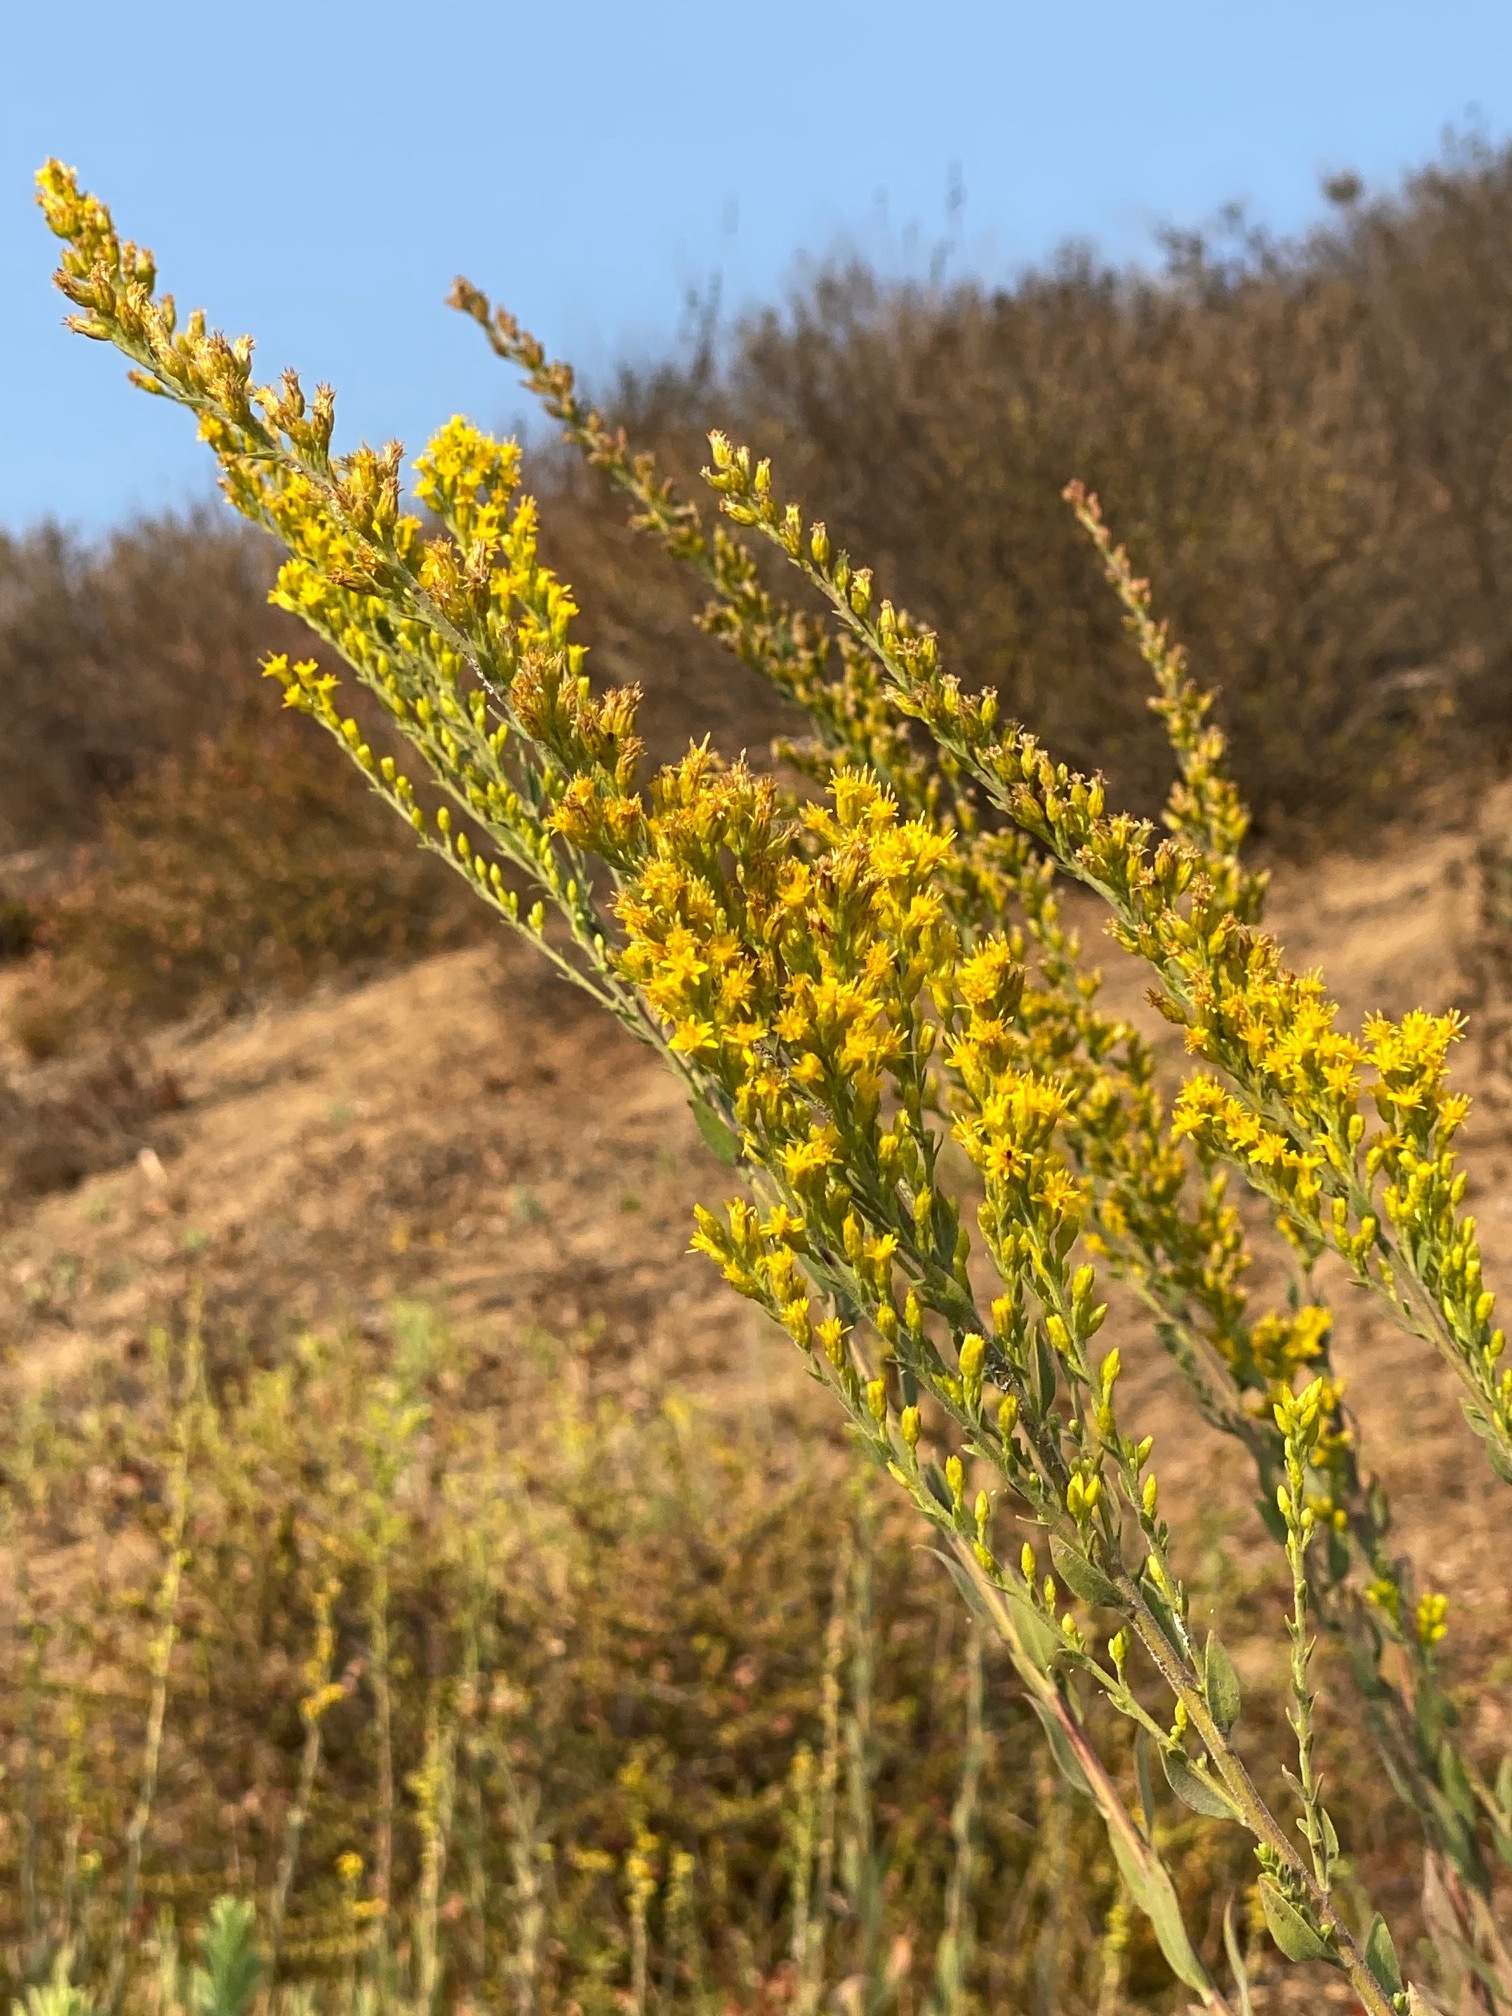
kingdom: Plantae
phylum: Tracheophyta
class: Magnoliopsida
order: Asterales
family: Asteraceae
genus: Solidago
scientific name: Solidago velutina
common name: Three-nerve goldenrod
